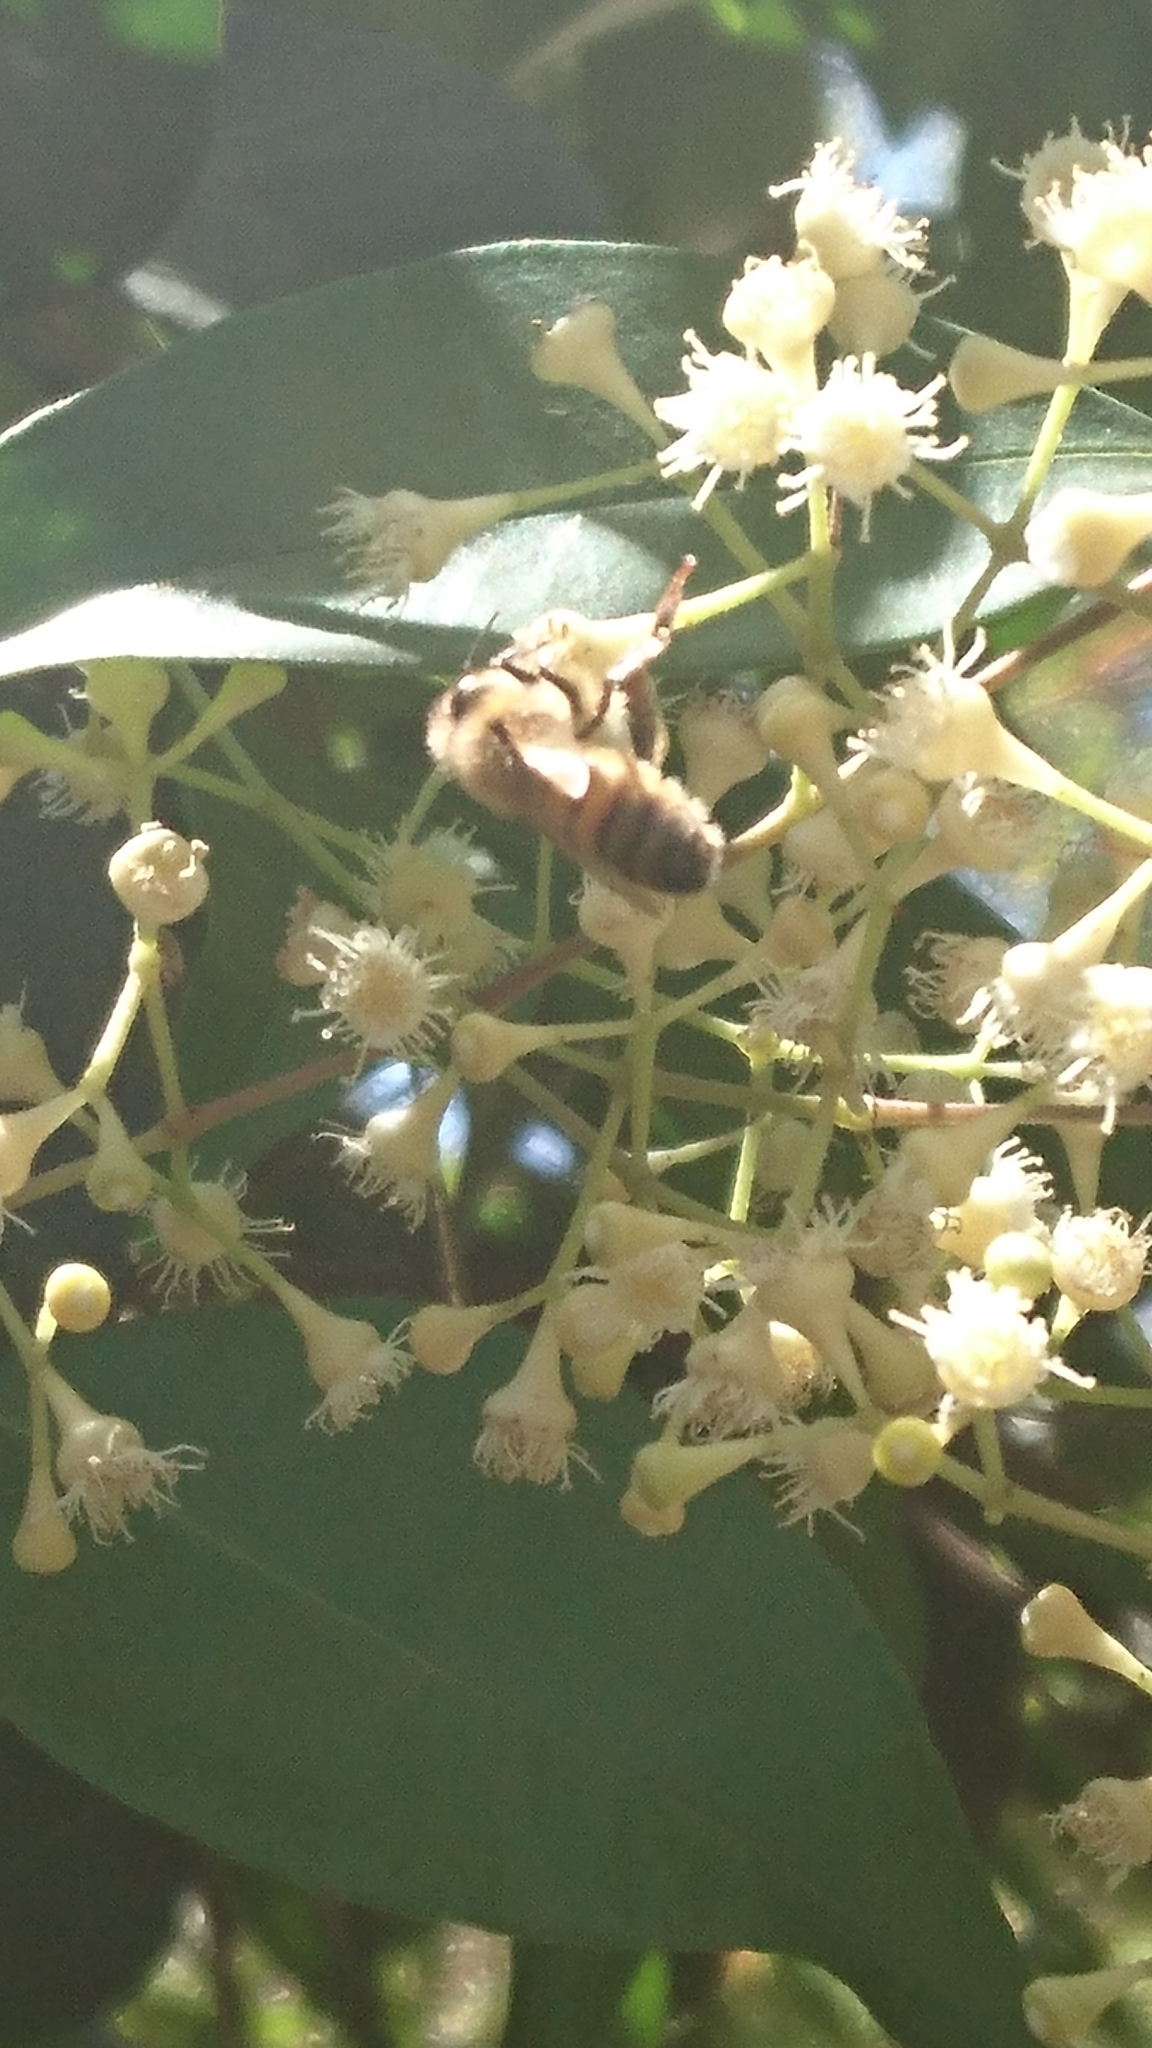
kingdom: Animalia
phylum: Arthropoda
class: Insecta
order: Hymenoptera
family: Apidae
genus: Apis
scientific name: Apis mellifera
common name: Honey bee
